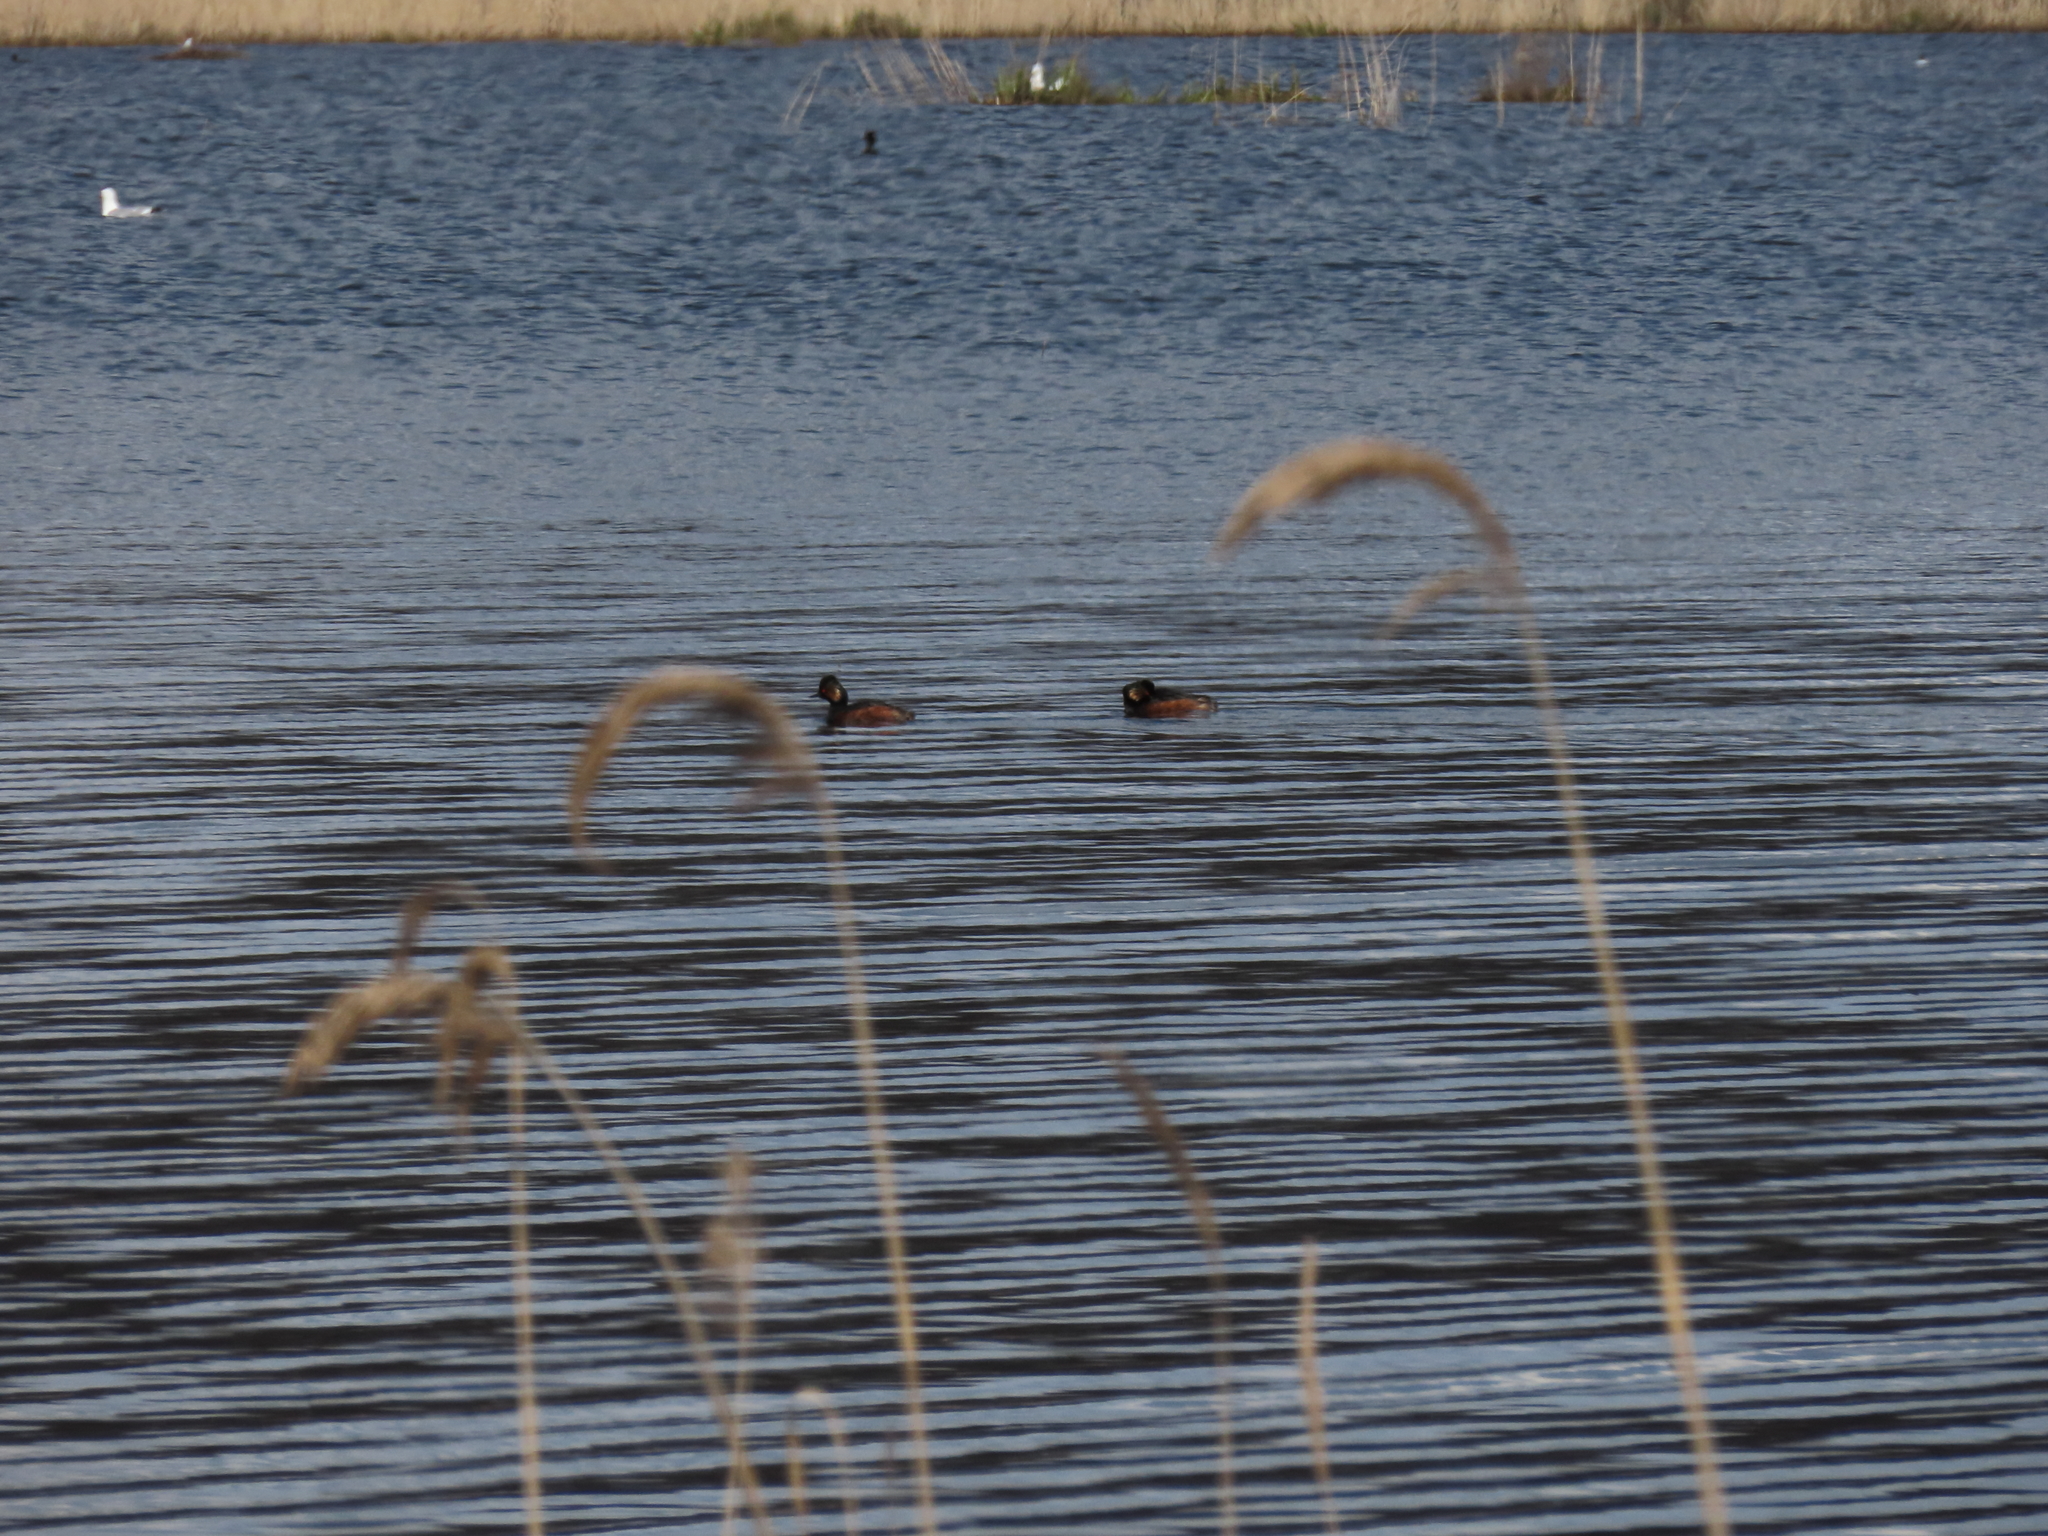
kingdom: Animalia
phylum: Chordata
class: Aves
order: Podicipediformes
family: Podicipedidae
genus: Podiceps
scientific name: Podiceps nigricollis
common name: Black-necked grebe
